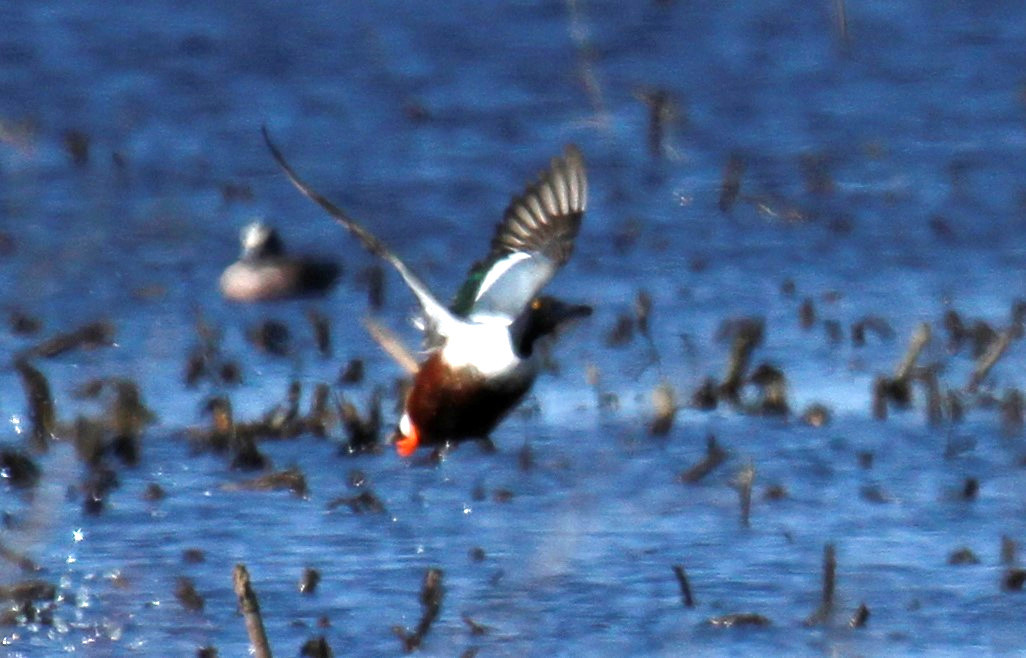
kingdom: Animalia
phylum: Chordata
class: Aves
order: Anseriformes
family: Anatidae
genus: Spatula
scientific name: Spatula clypeata
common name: Northern shoveler
